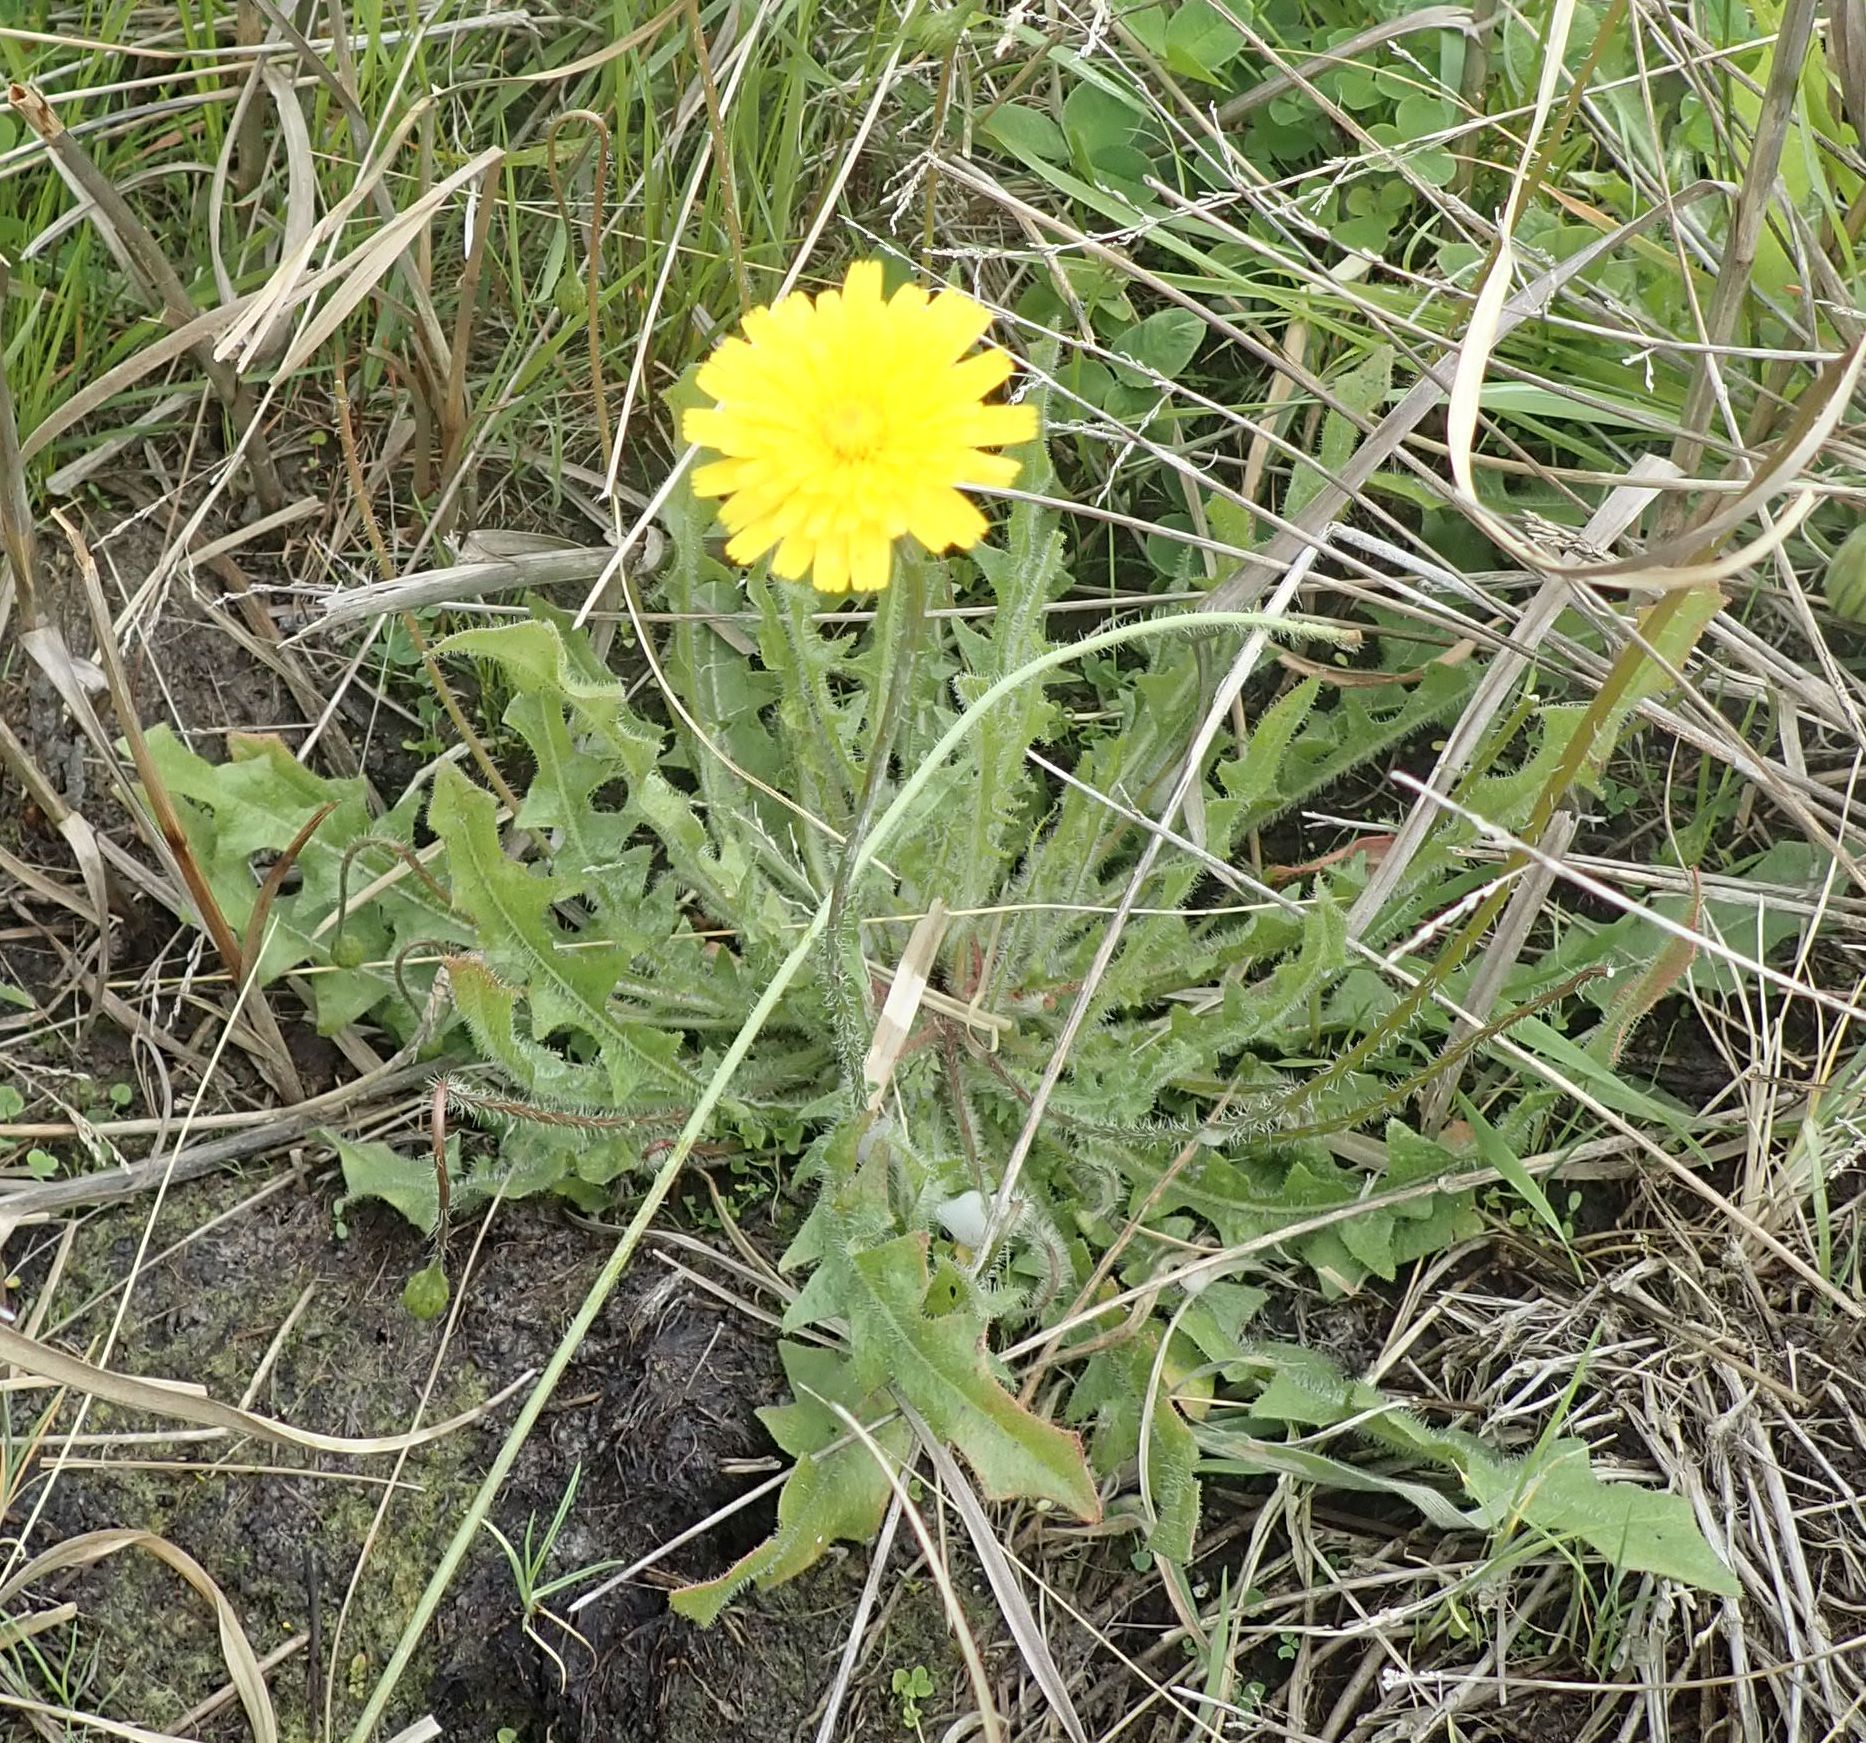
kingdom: Plantae
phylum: Tracheophyta
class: Magnoliopsida
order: Asterales
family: Asteraceae
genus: Hypochaeris
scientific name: Hypochaeris radicata
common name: Flatweed
